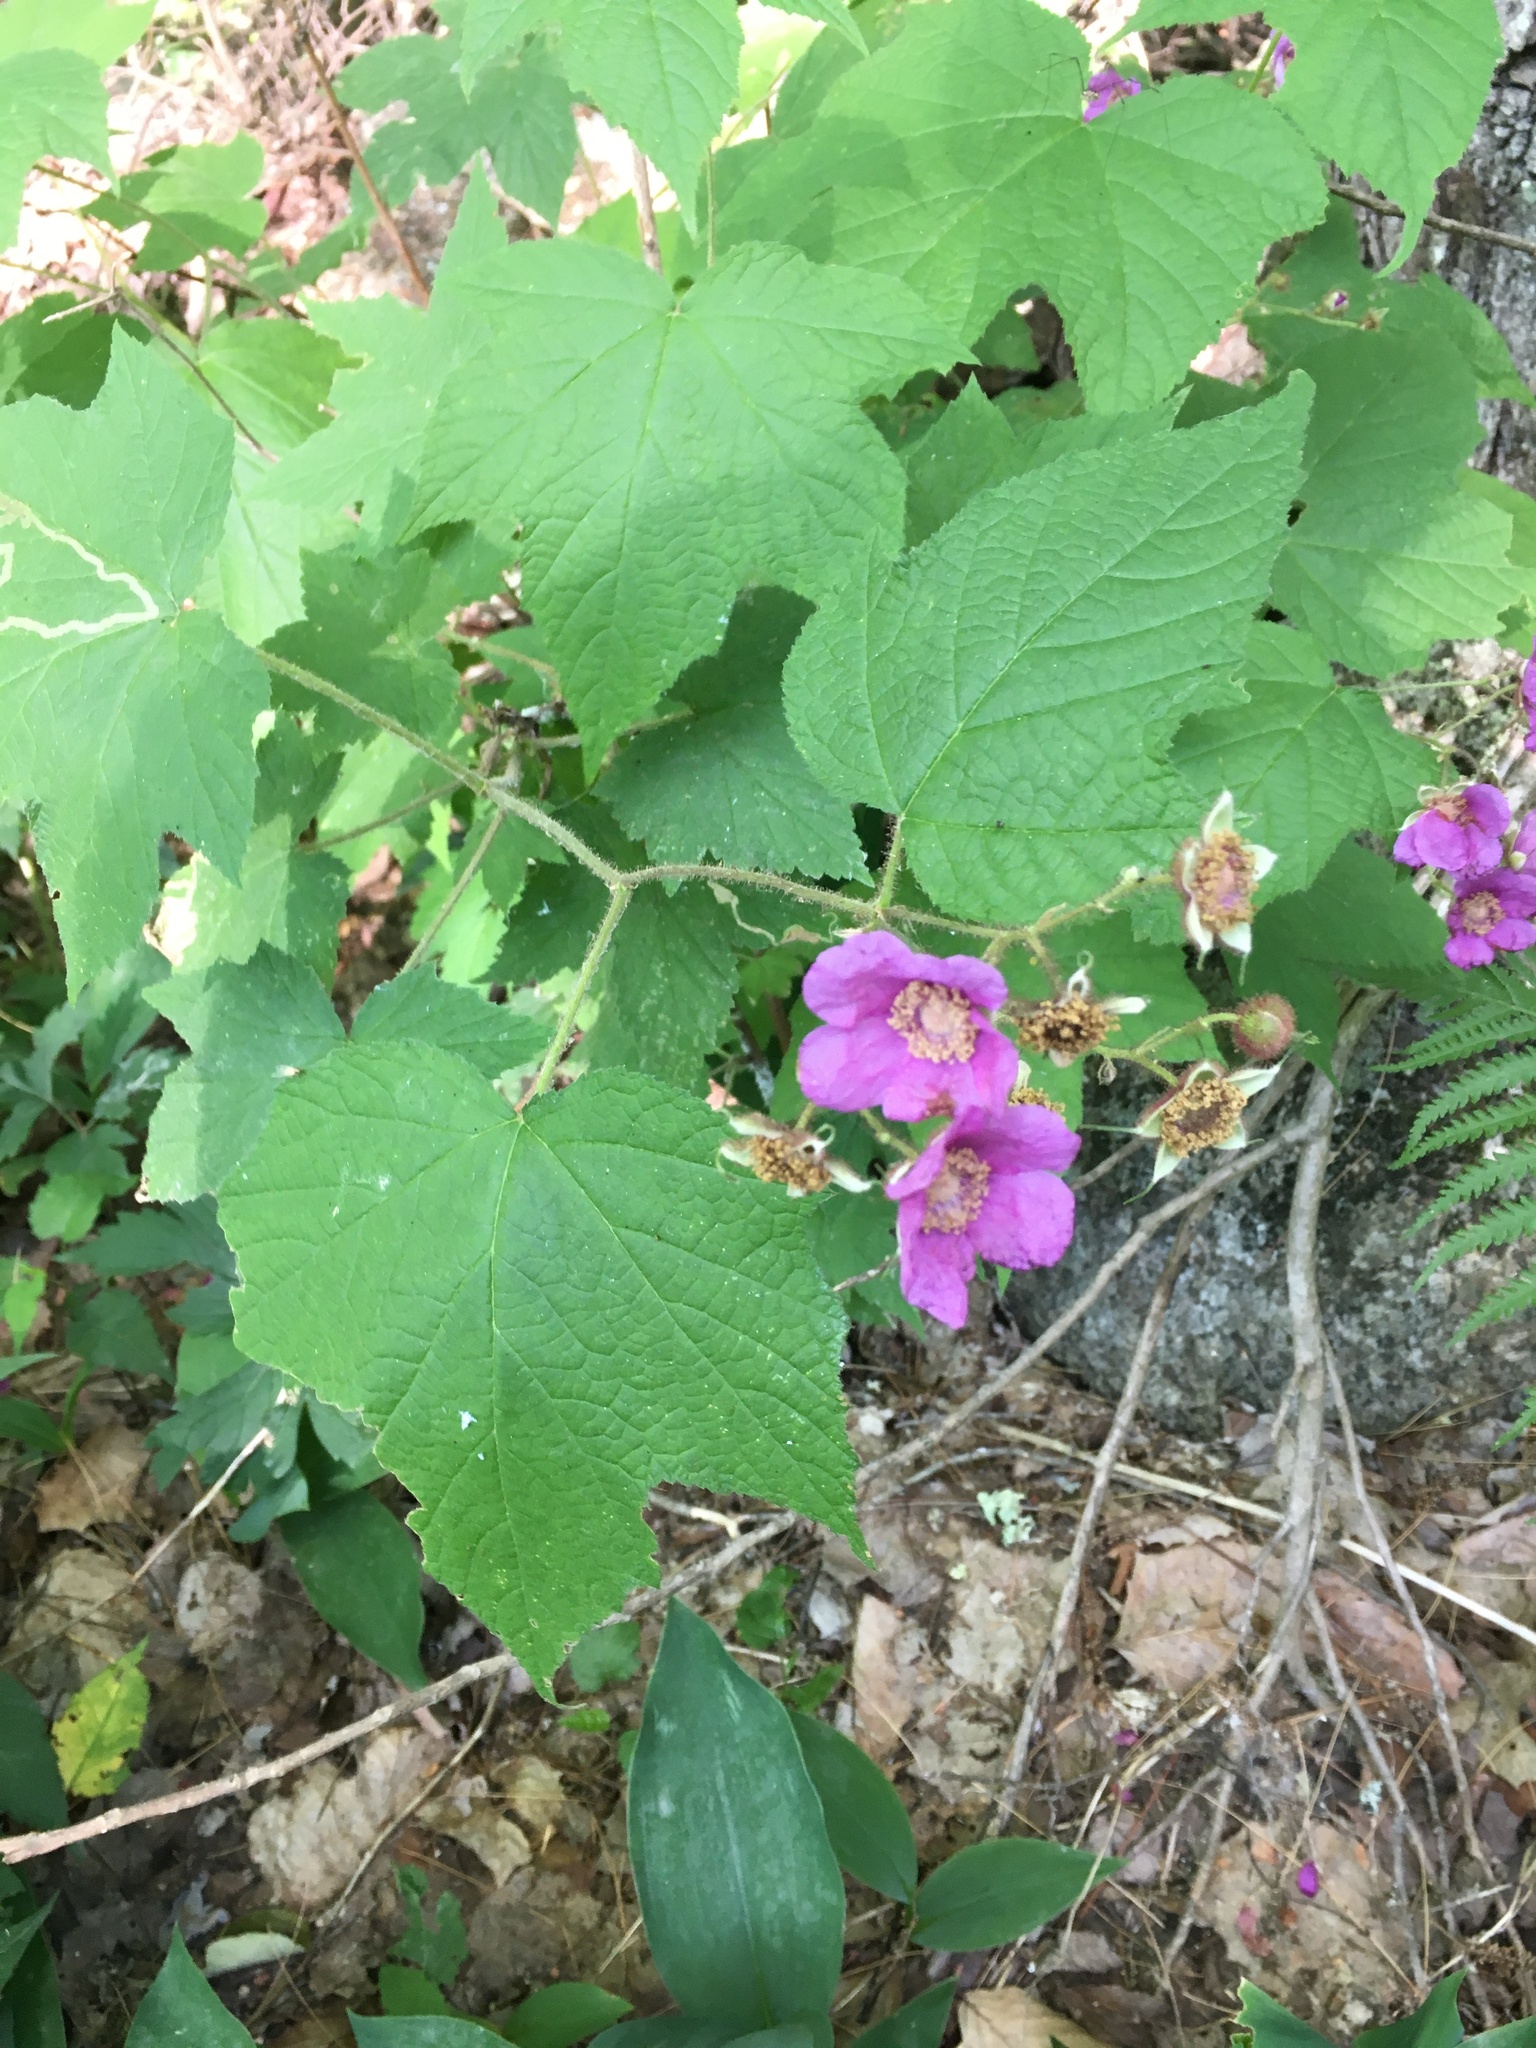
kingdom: Plantae
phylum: Tracheophyta
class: Magnoliopsida
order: Rosales
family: Rosaceae
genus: Rubus
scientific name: Rubus odoratus
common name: Purple-flowered raspberry
